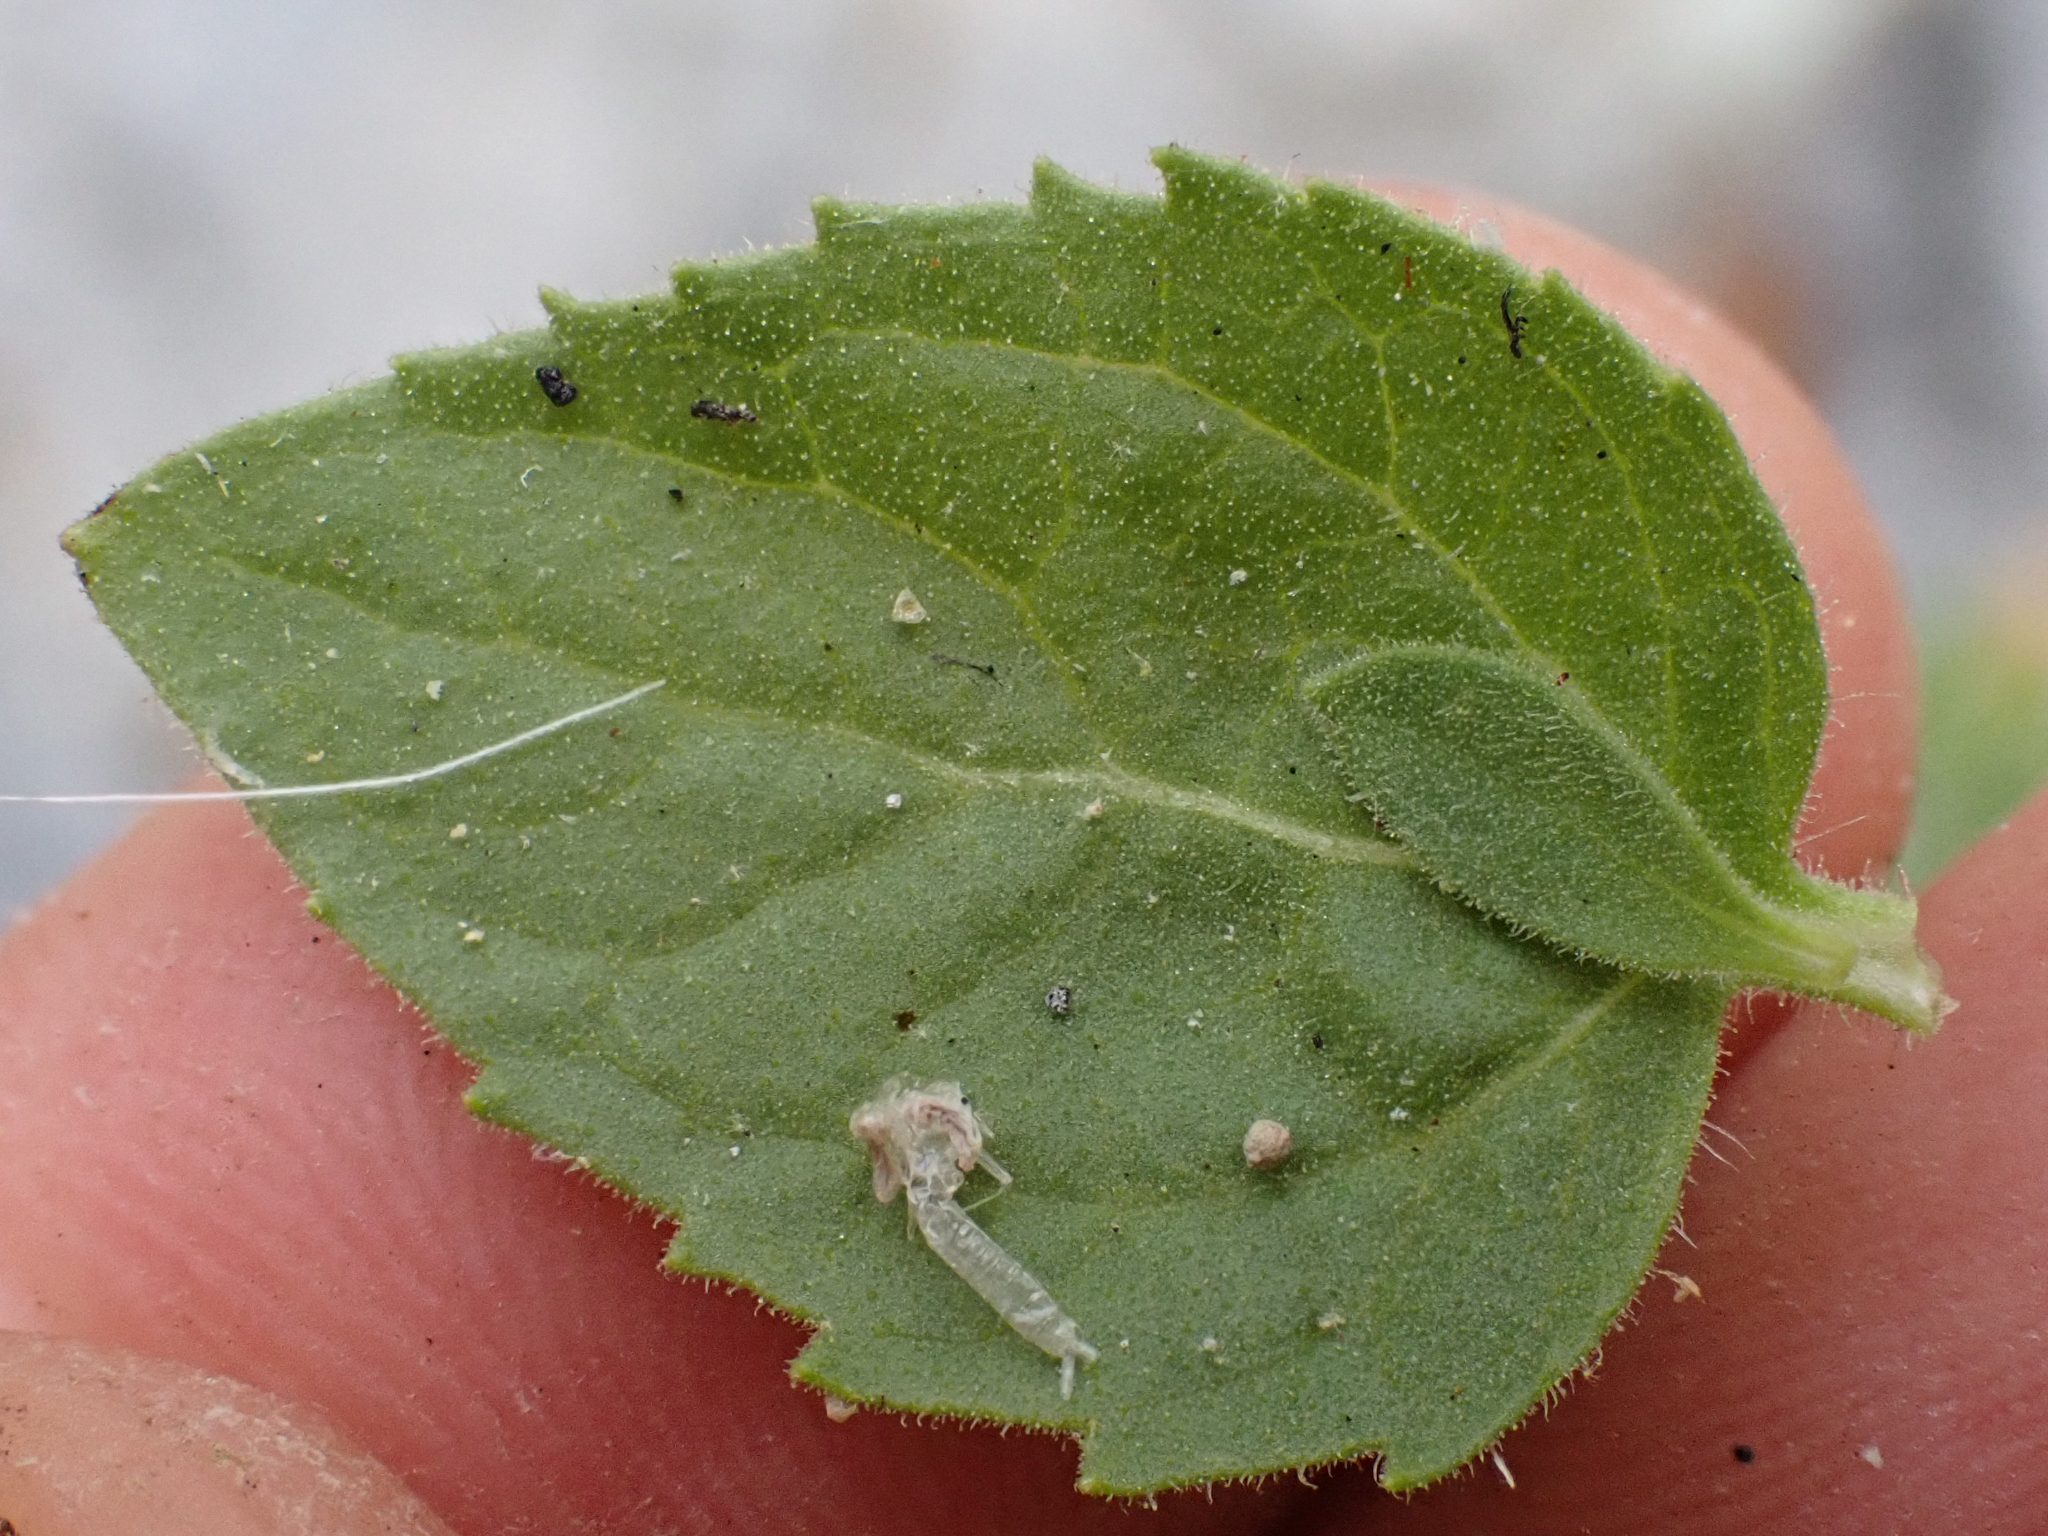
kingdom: Plantae
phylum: Tracheophyta
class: Magnoliopsida
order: Asterales
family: Asteraceae
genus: Brickellia
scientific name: Brickellia greenei
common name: Greene's brickellbush
